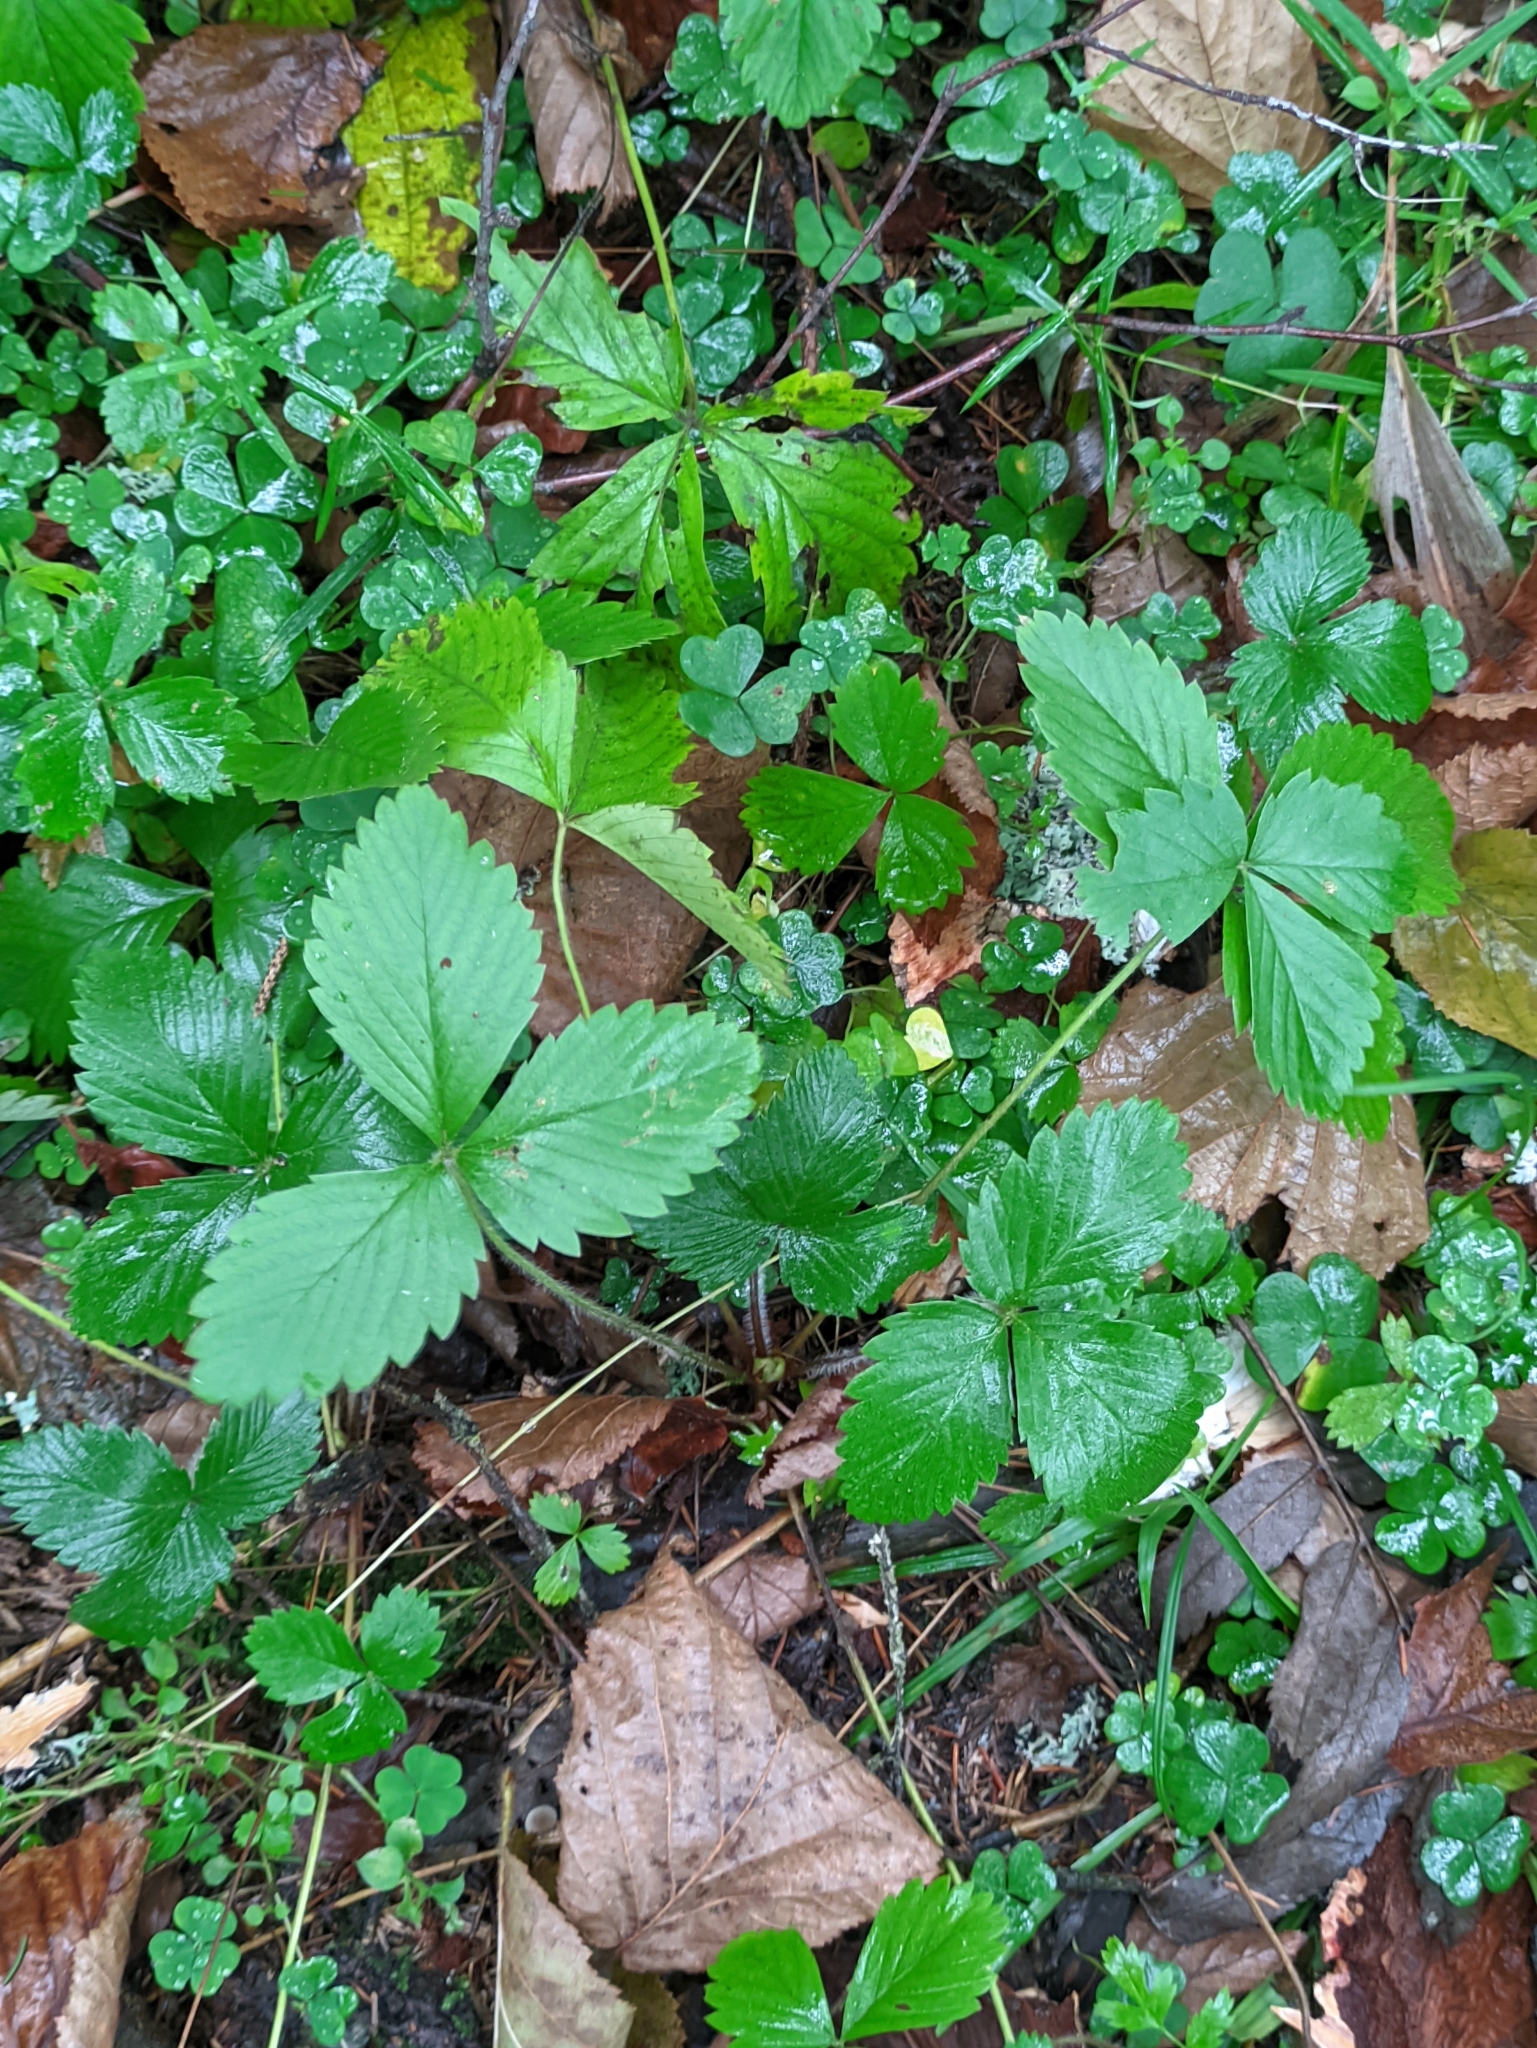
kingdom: Plantae
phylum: Tracheophyta
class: Magnoliopsida
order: Rosales
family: Rosaceae
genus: Fragaria
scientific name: Fragaria vesca
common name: Wild strawberry
